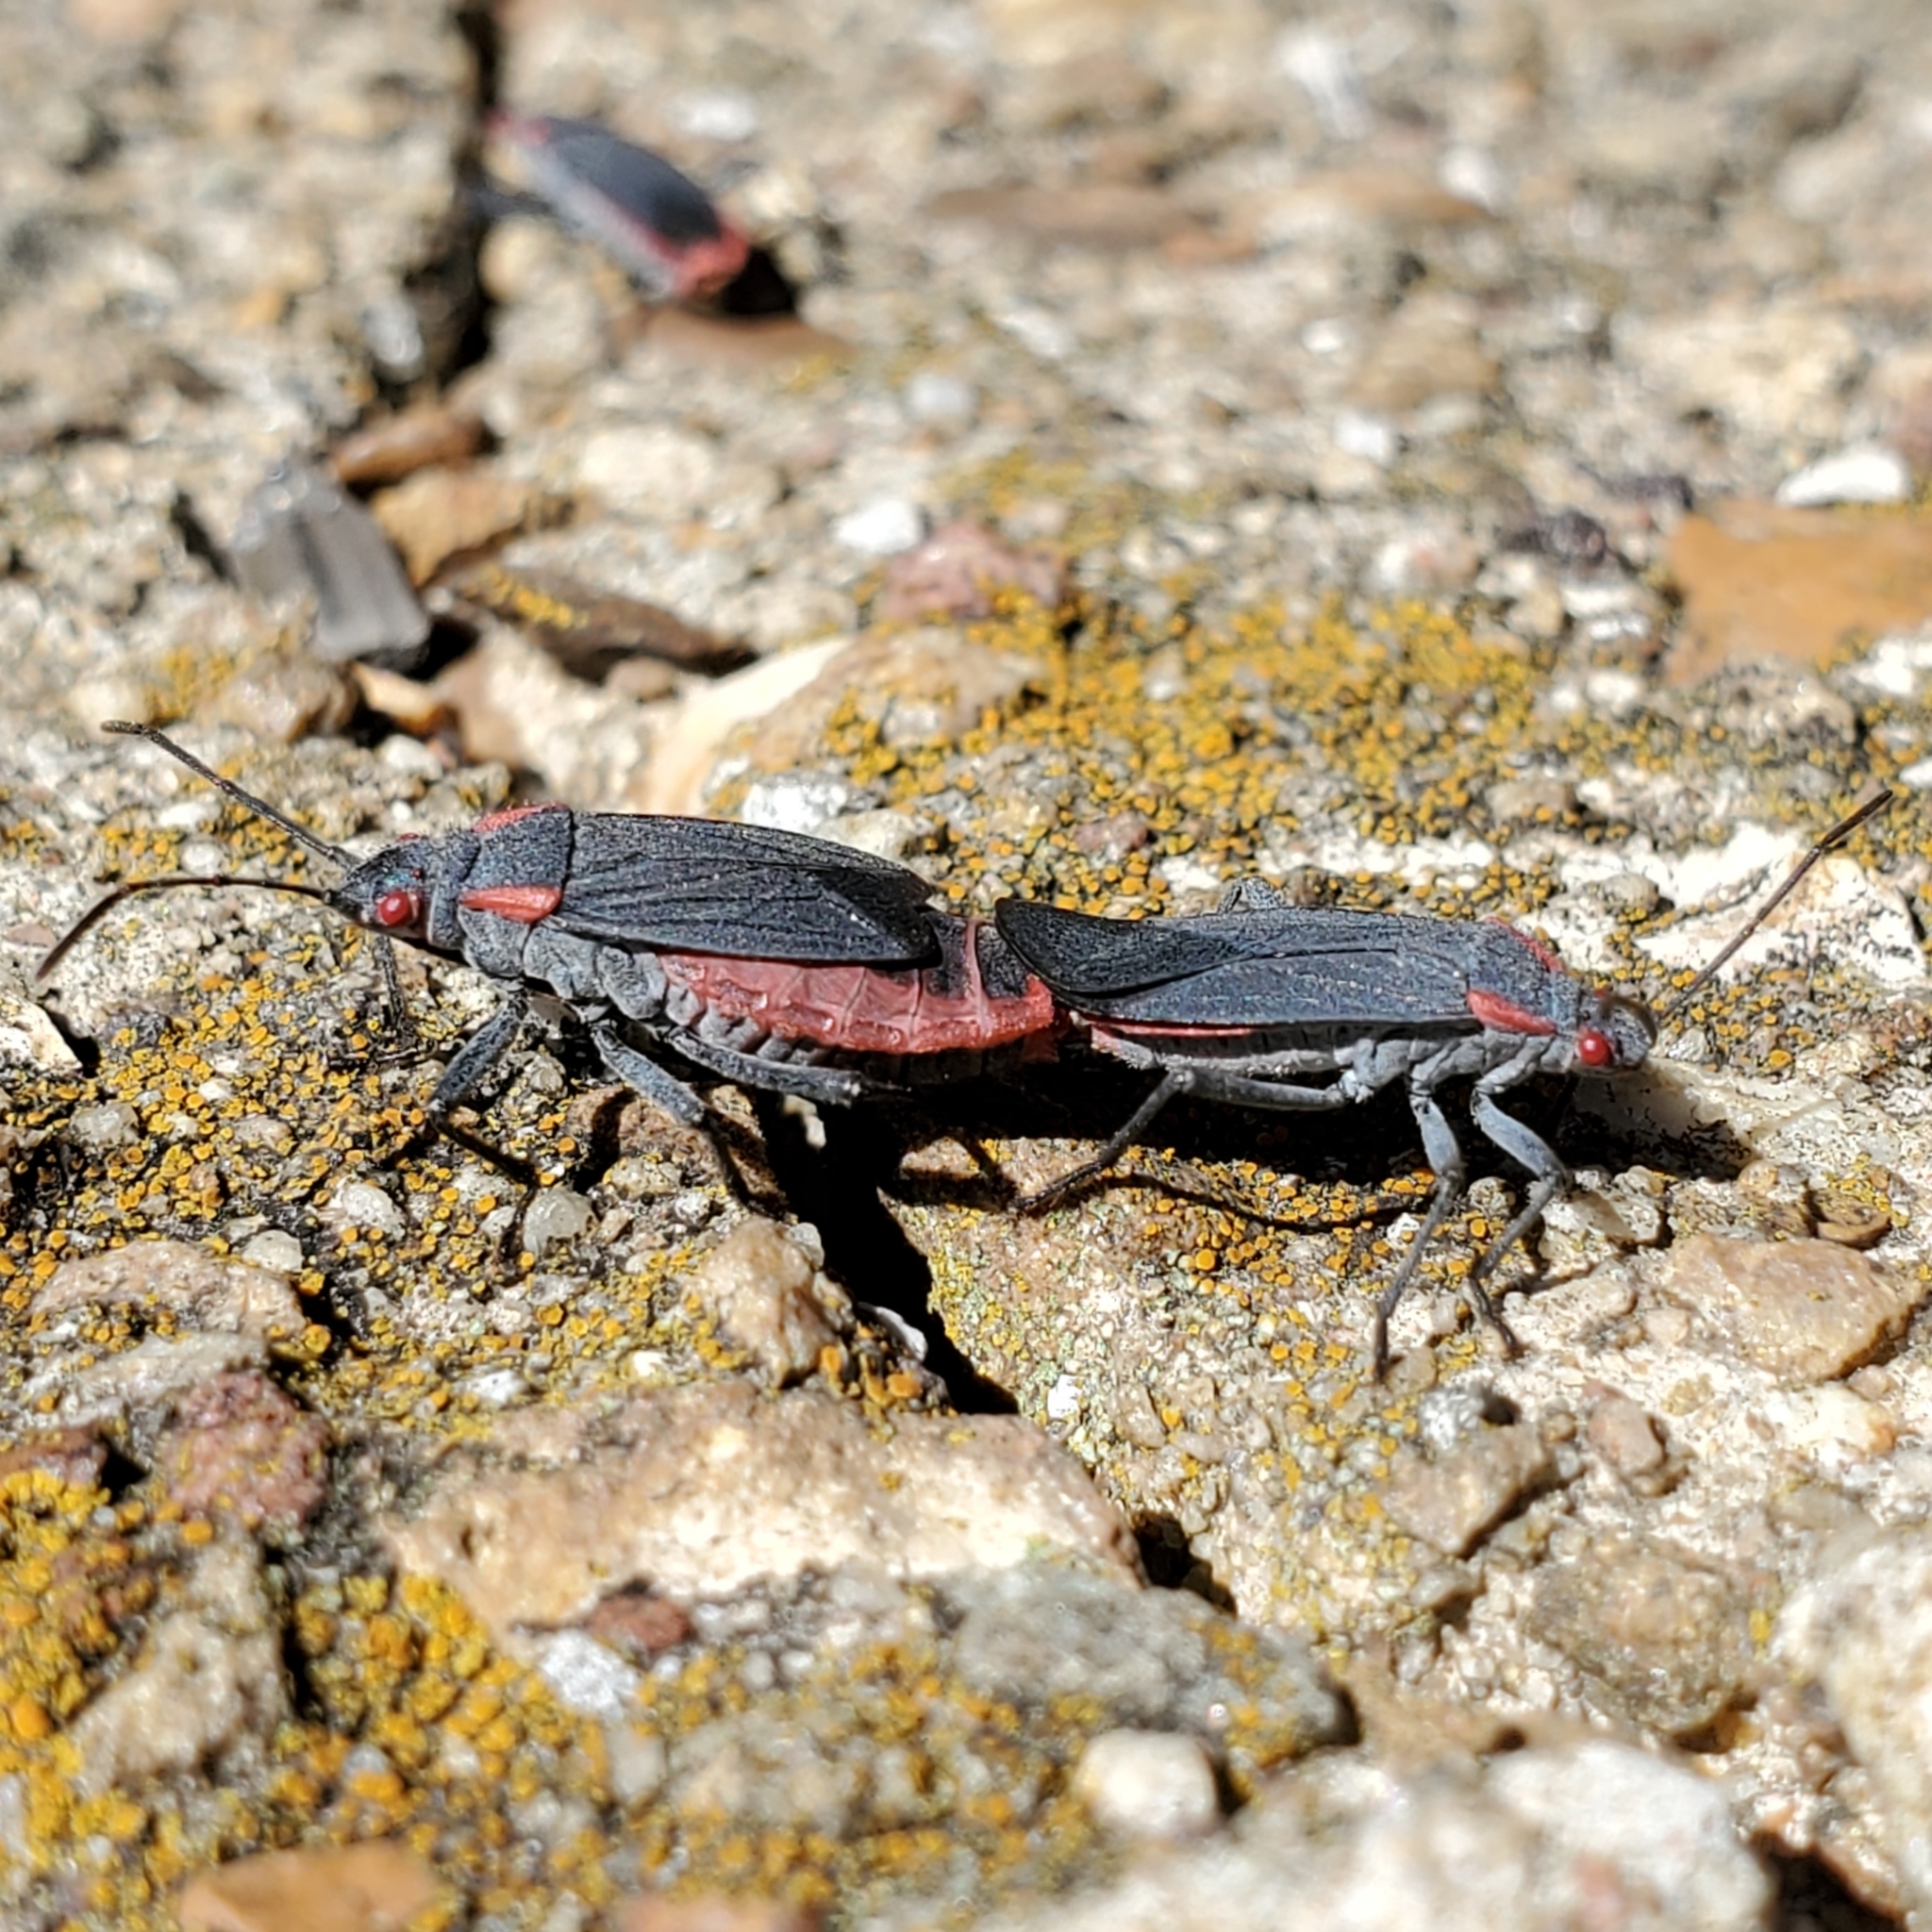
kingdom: Animalia
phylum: Arthropoda
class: Insecta
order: Hemiptera
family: Rhopalidae
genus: Jadera
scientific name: Jadera haematoloma
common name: Red-shouldered bug
